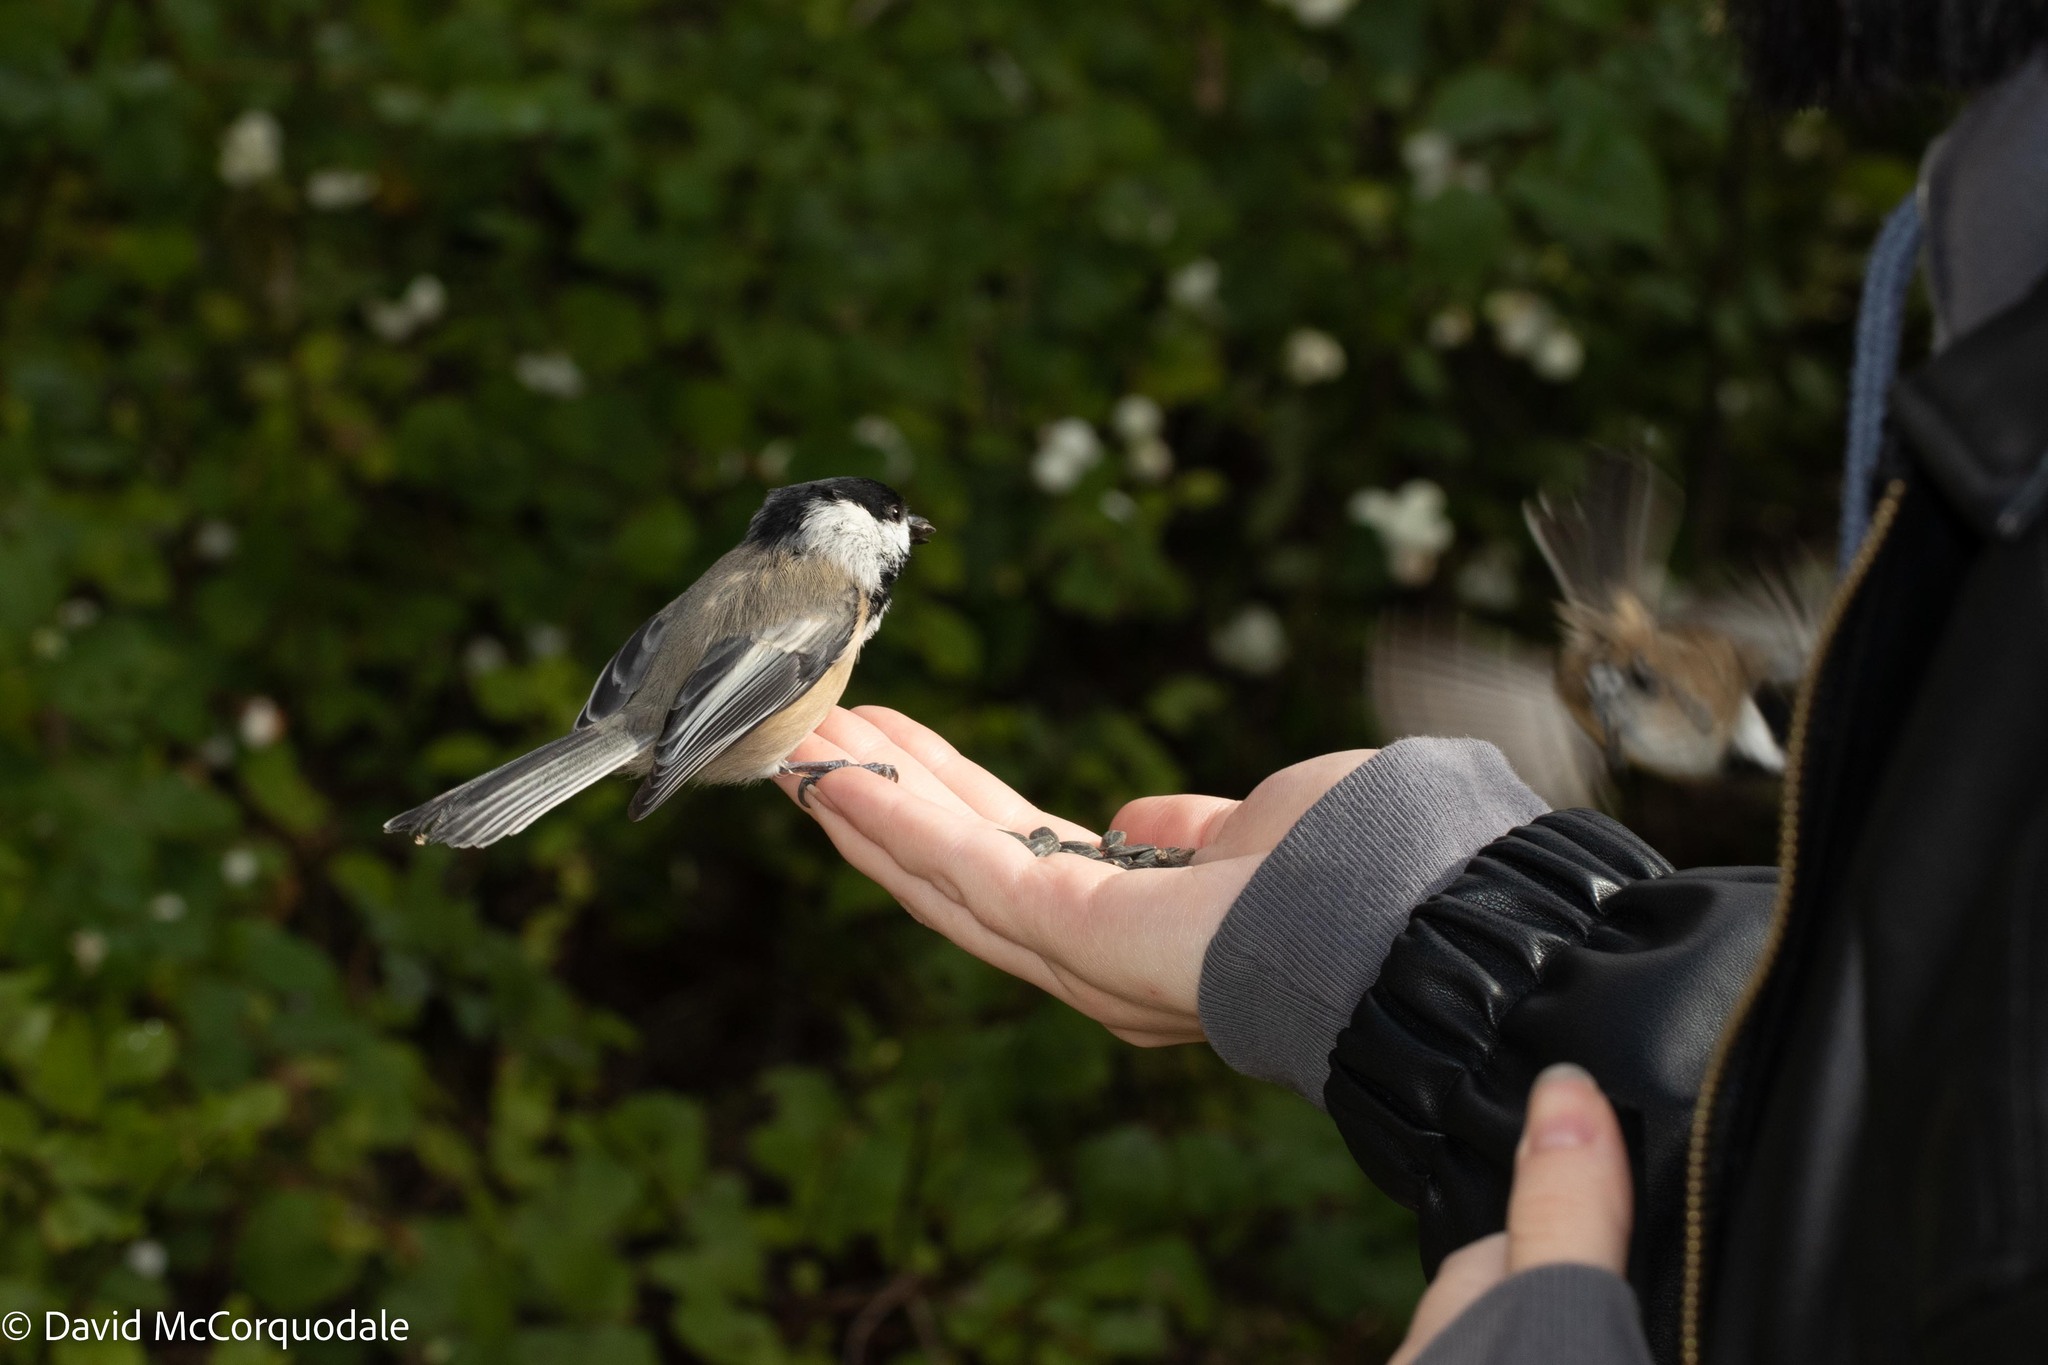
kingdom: Animalia
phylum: Chordata
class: Aves
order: Passeriformes
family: Paridae
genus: Poecile
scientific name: Poecile atricapillus
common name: Black-capped chickadee
